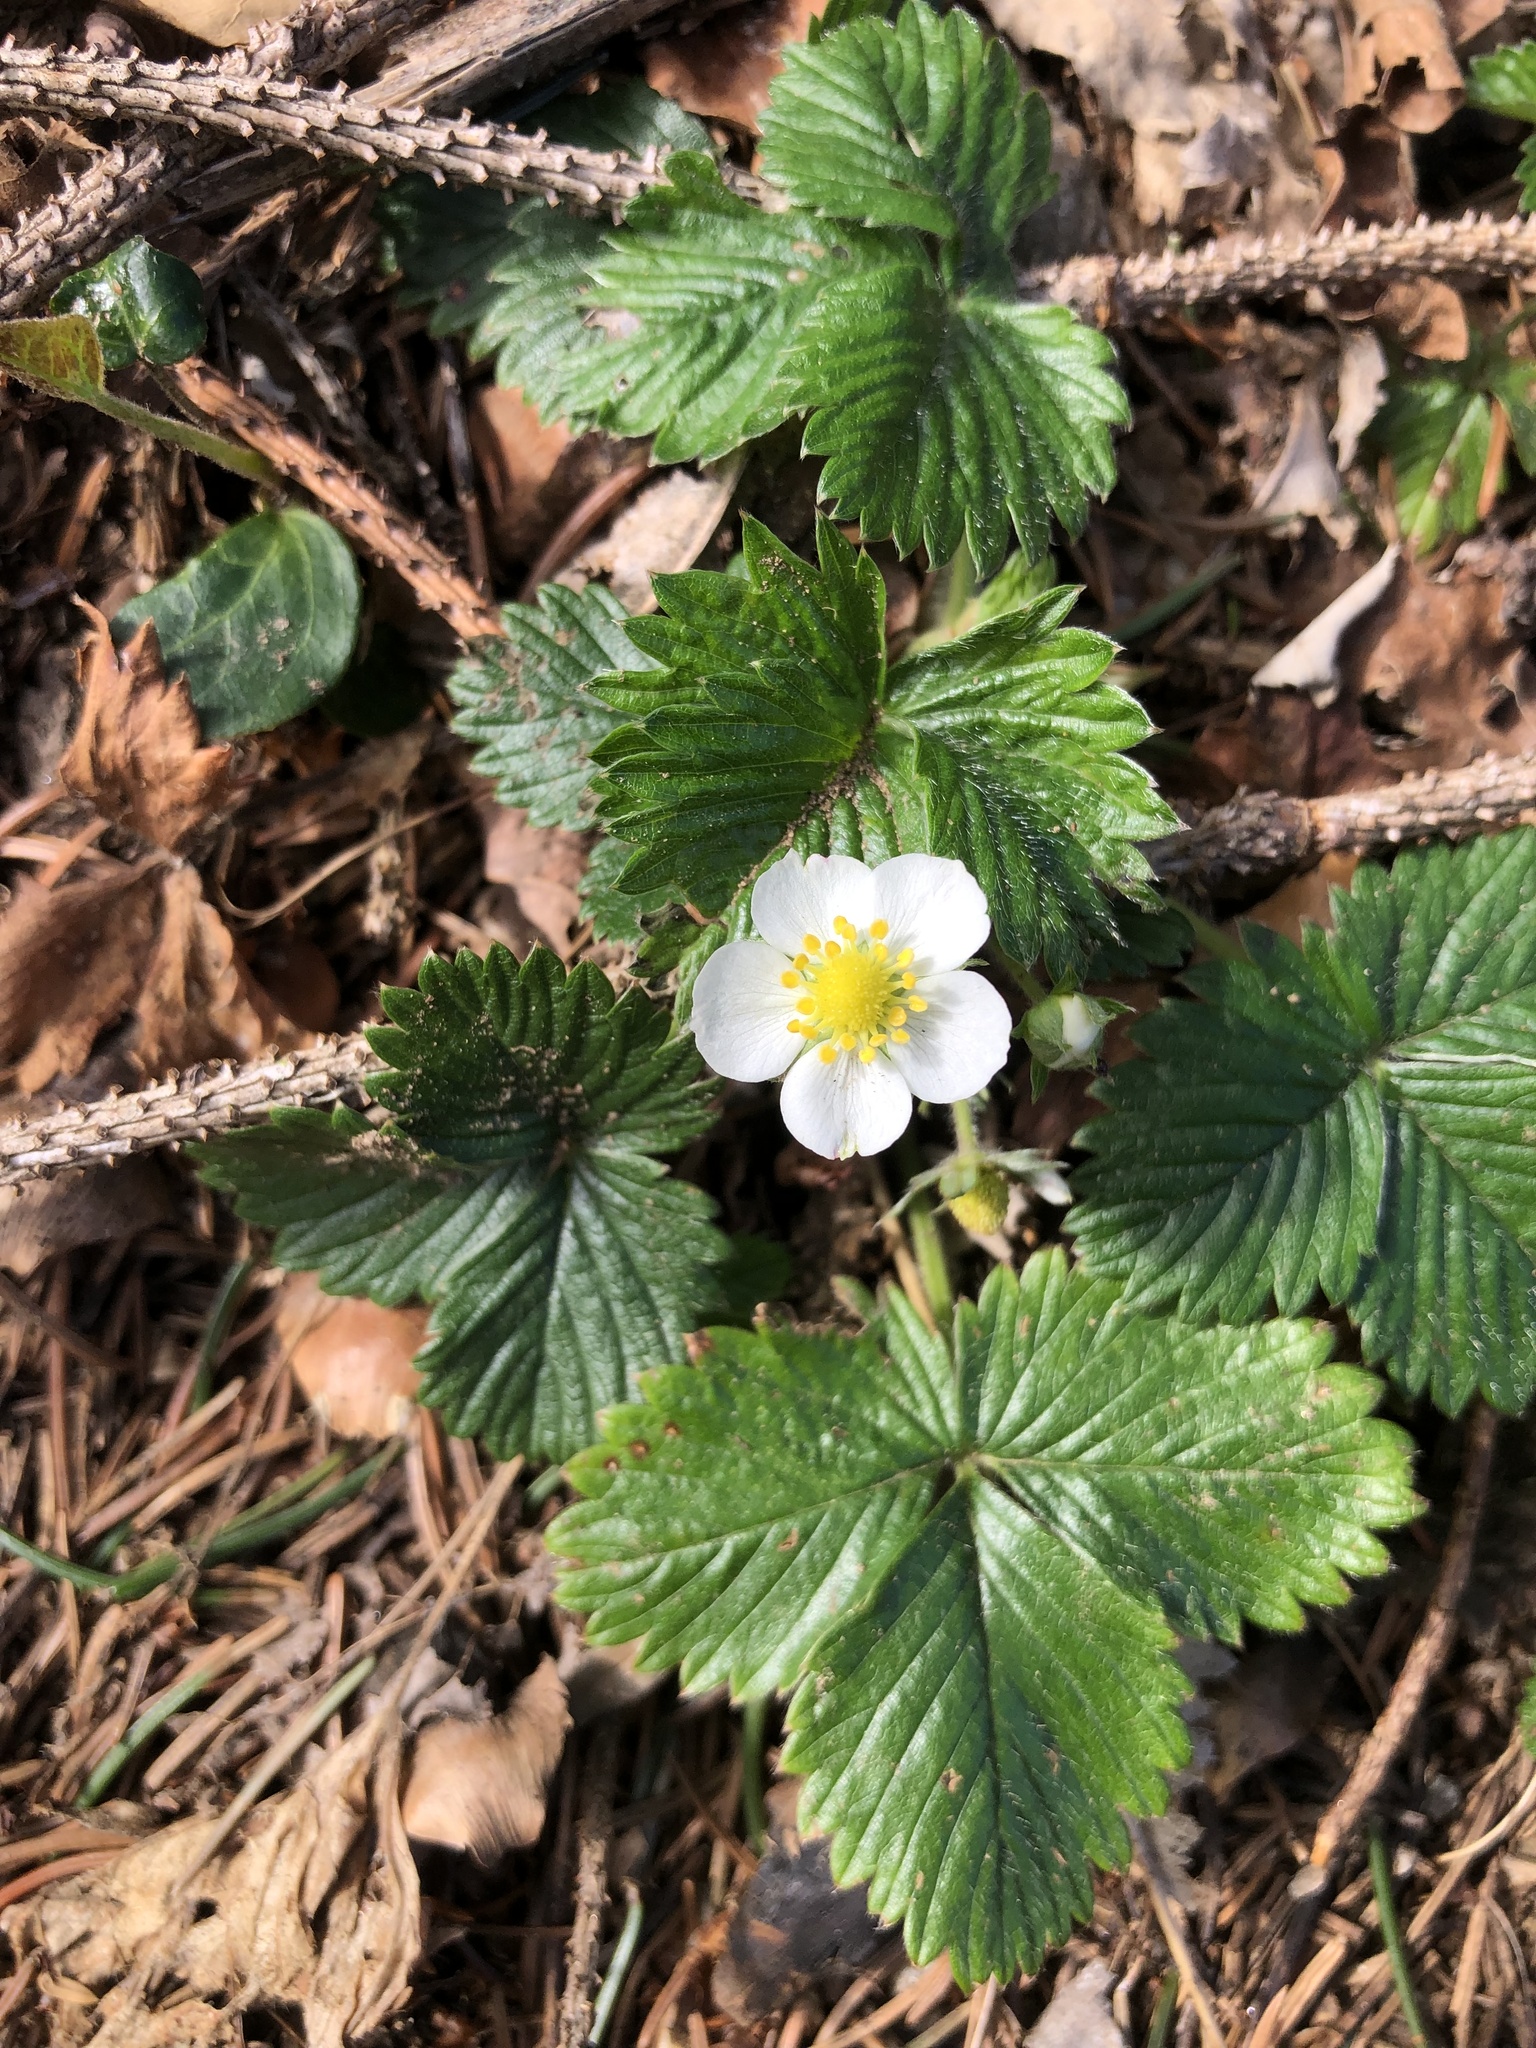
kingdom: Plantae
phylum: Tracheophyta
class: Magnoliopsida
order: Rosales
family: Rosaceae
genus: Fragaria
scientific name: Fragaria vesca
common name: Wild strawberry
